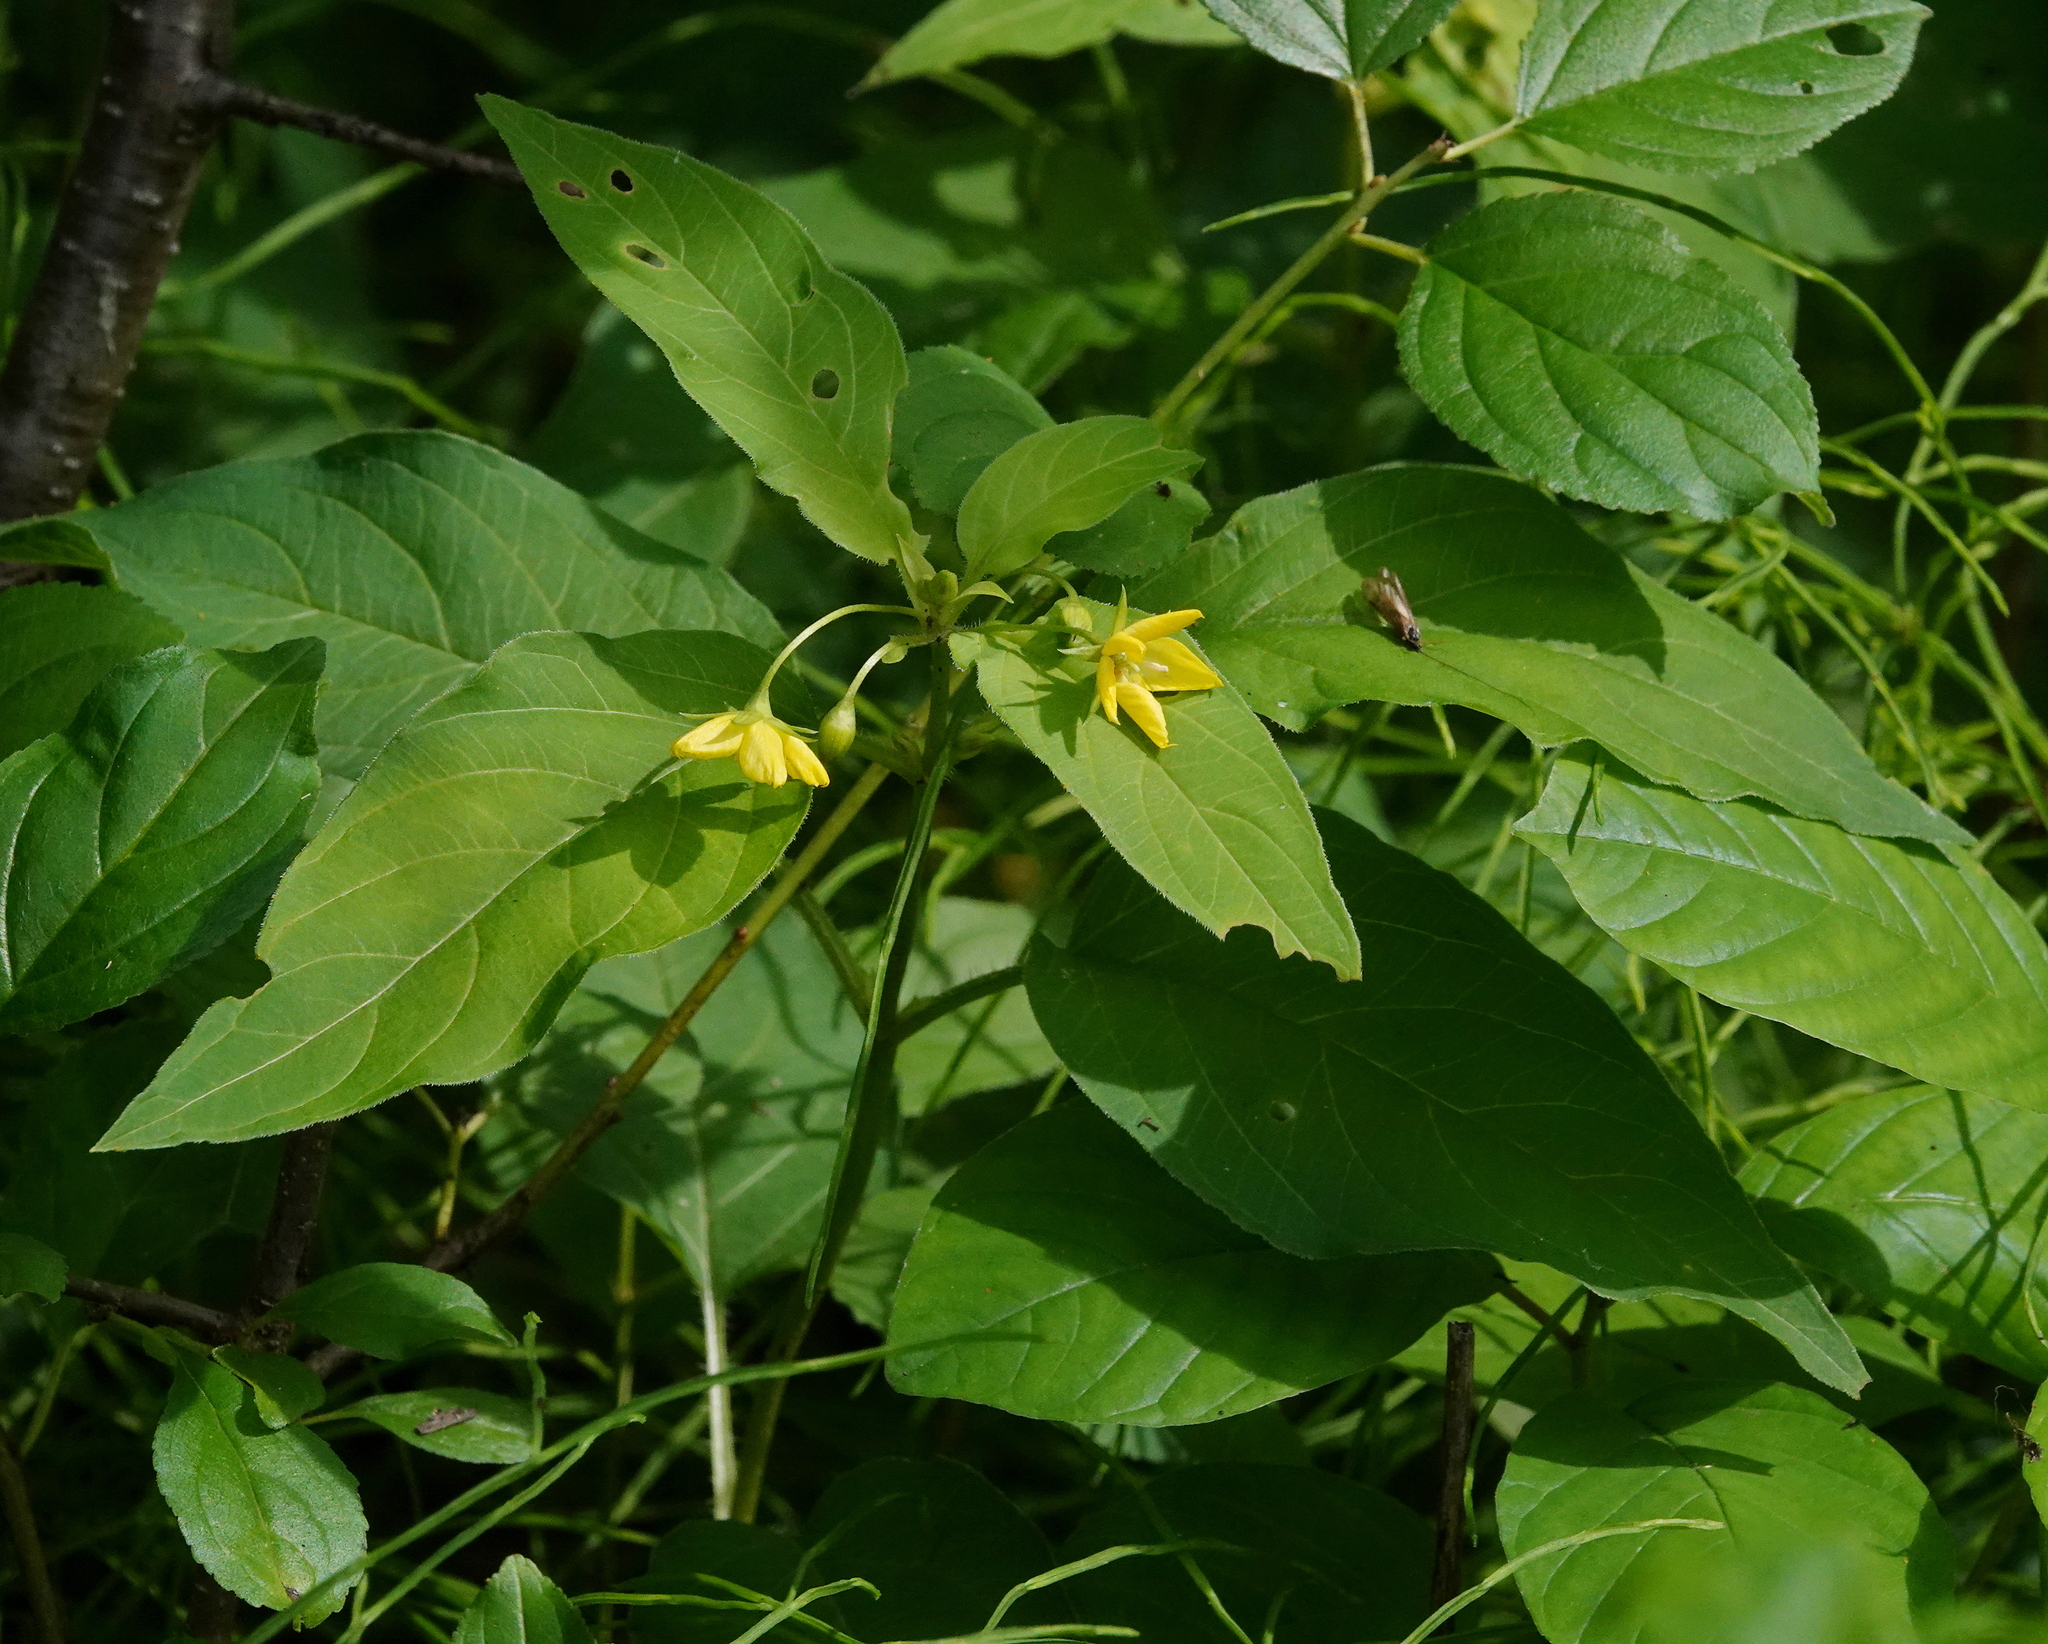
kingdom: Plantae
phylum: Tracheophyta
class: Magnoliopsida
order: Ericales
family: Primulaceae
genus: Lysimachia
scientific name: Lysimachia ciliata
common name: Fringed loosestrife
